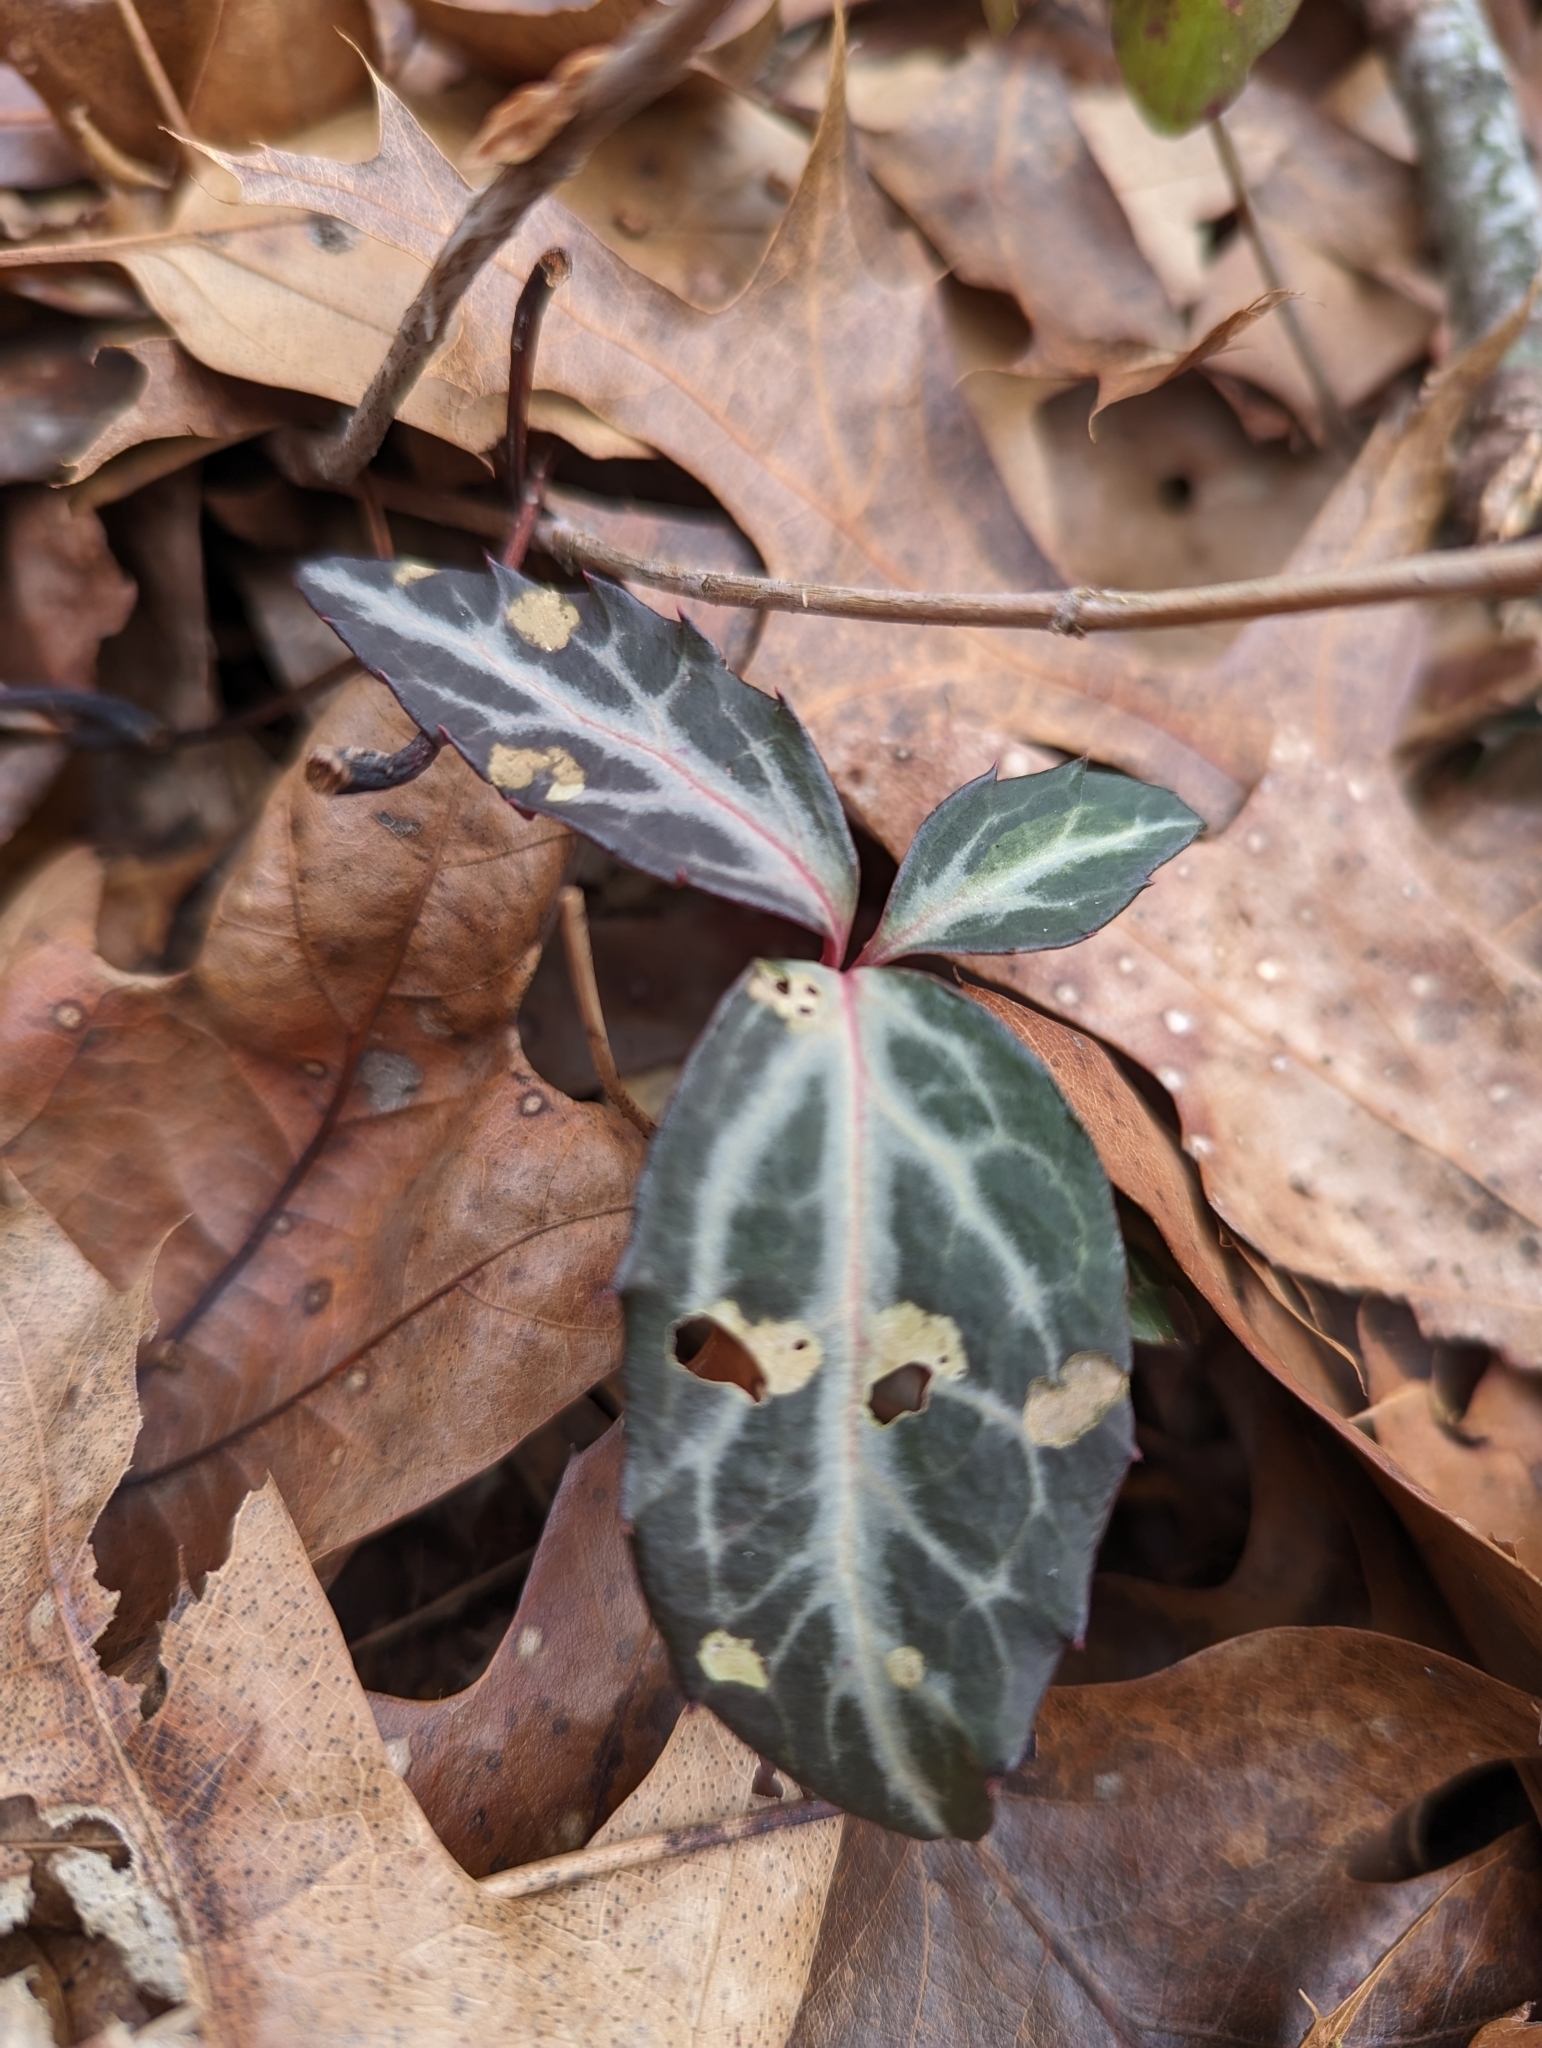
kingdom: Plantae
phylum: Tracheophyta
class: Magnoliopsida
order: Ericales
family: Ericaceae
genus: Chimaphila
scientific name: Chimaphila maculata
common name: Spotted pipsissewa
